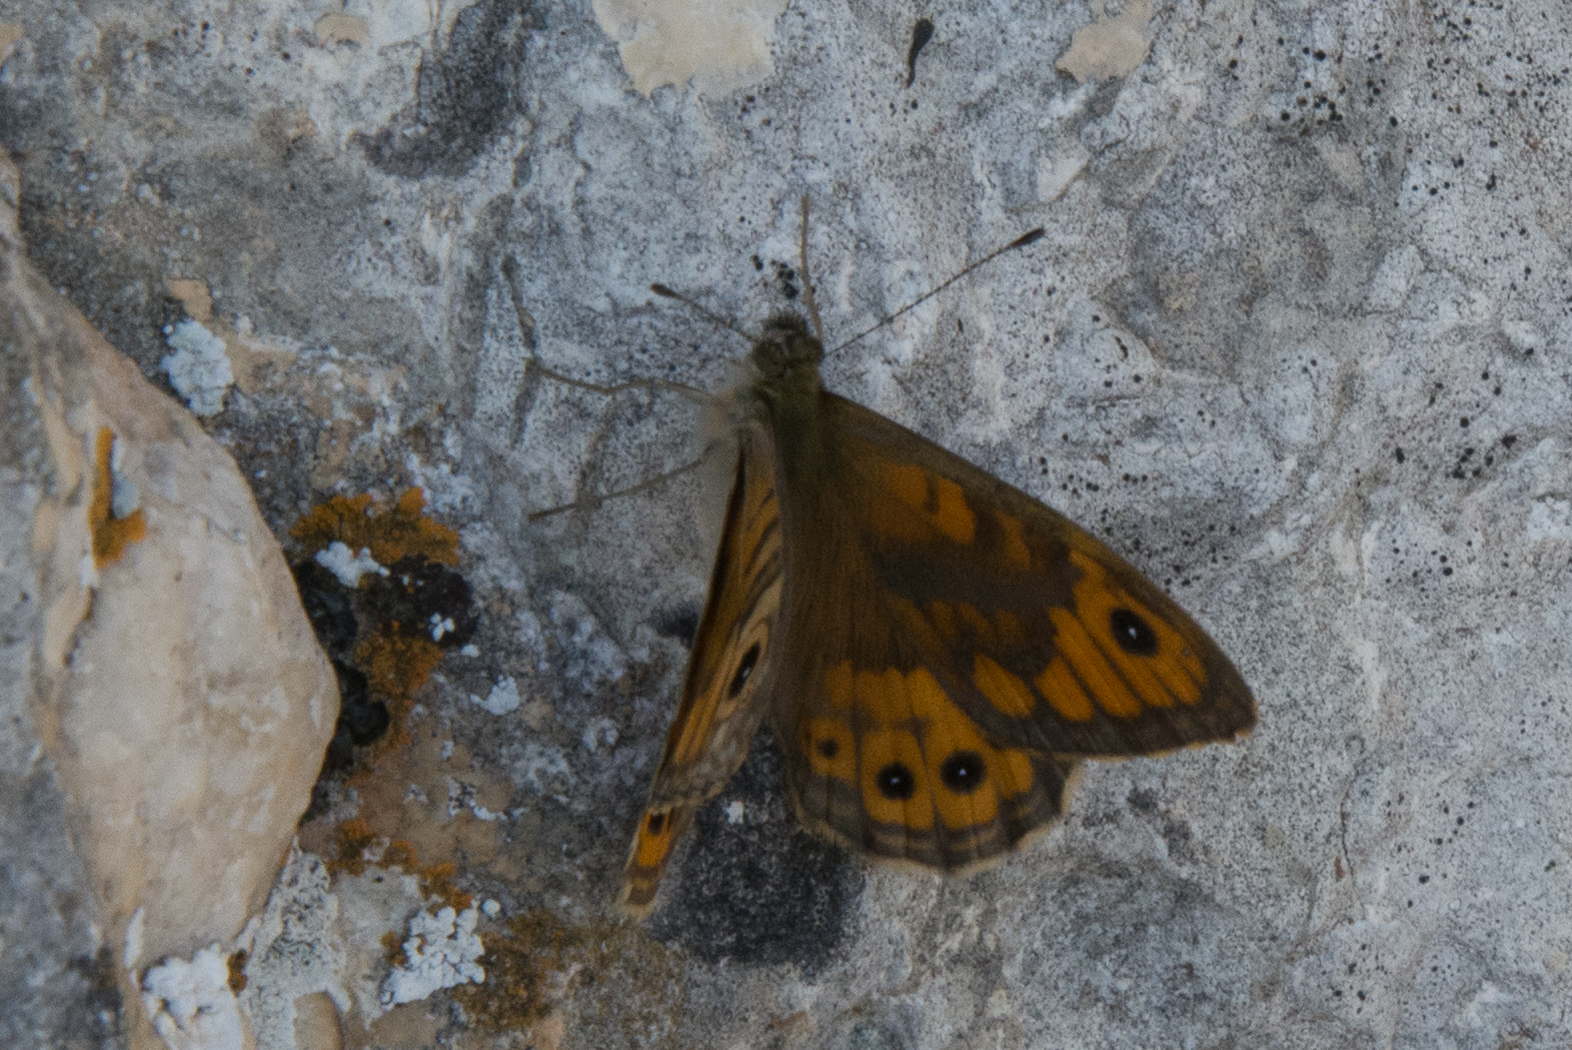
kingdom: Animalia
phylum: Arthropoda
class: Insecta
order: Lepidoptera
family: Nymphalidae
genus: Pararge
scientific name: Pararge Lasiommata megera
